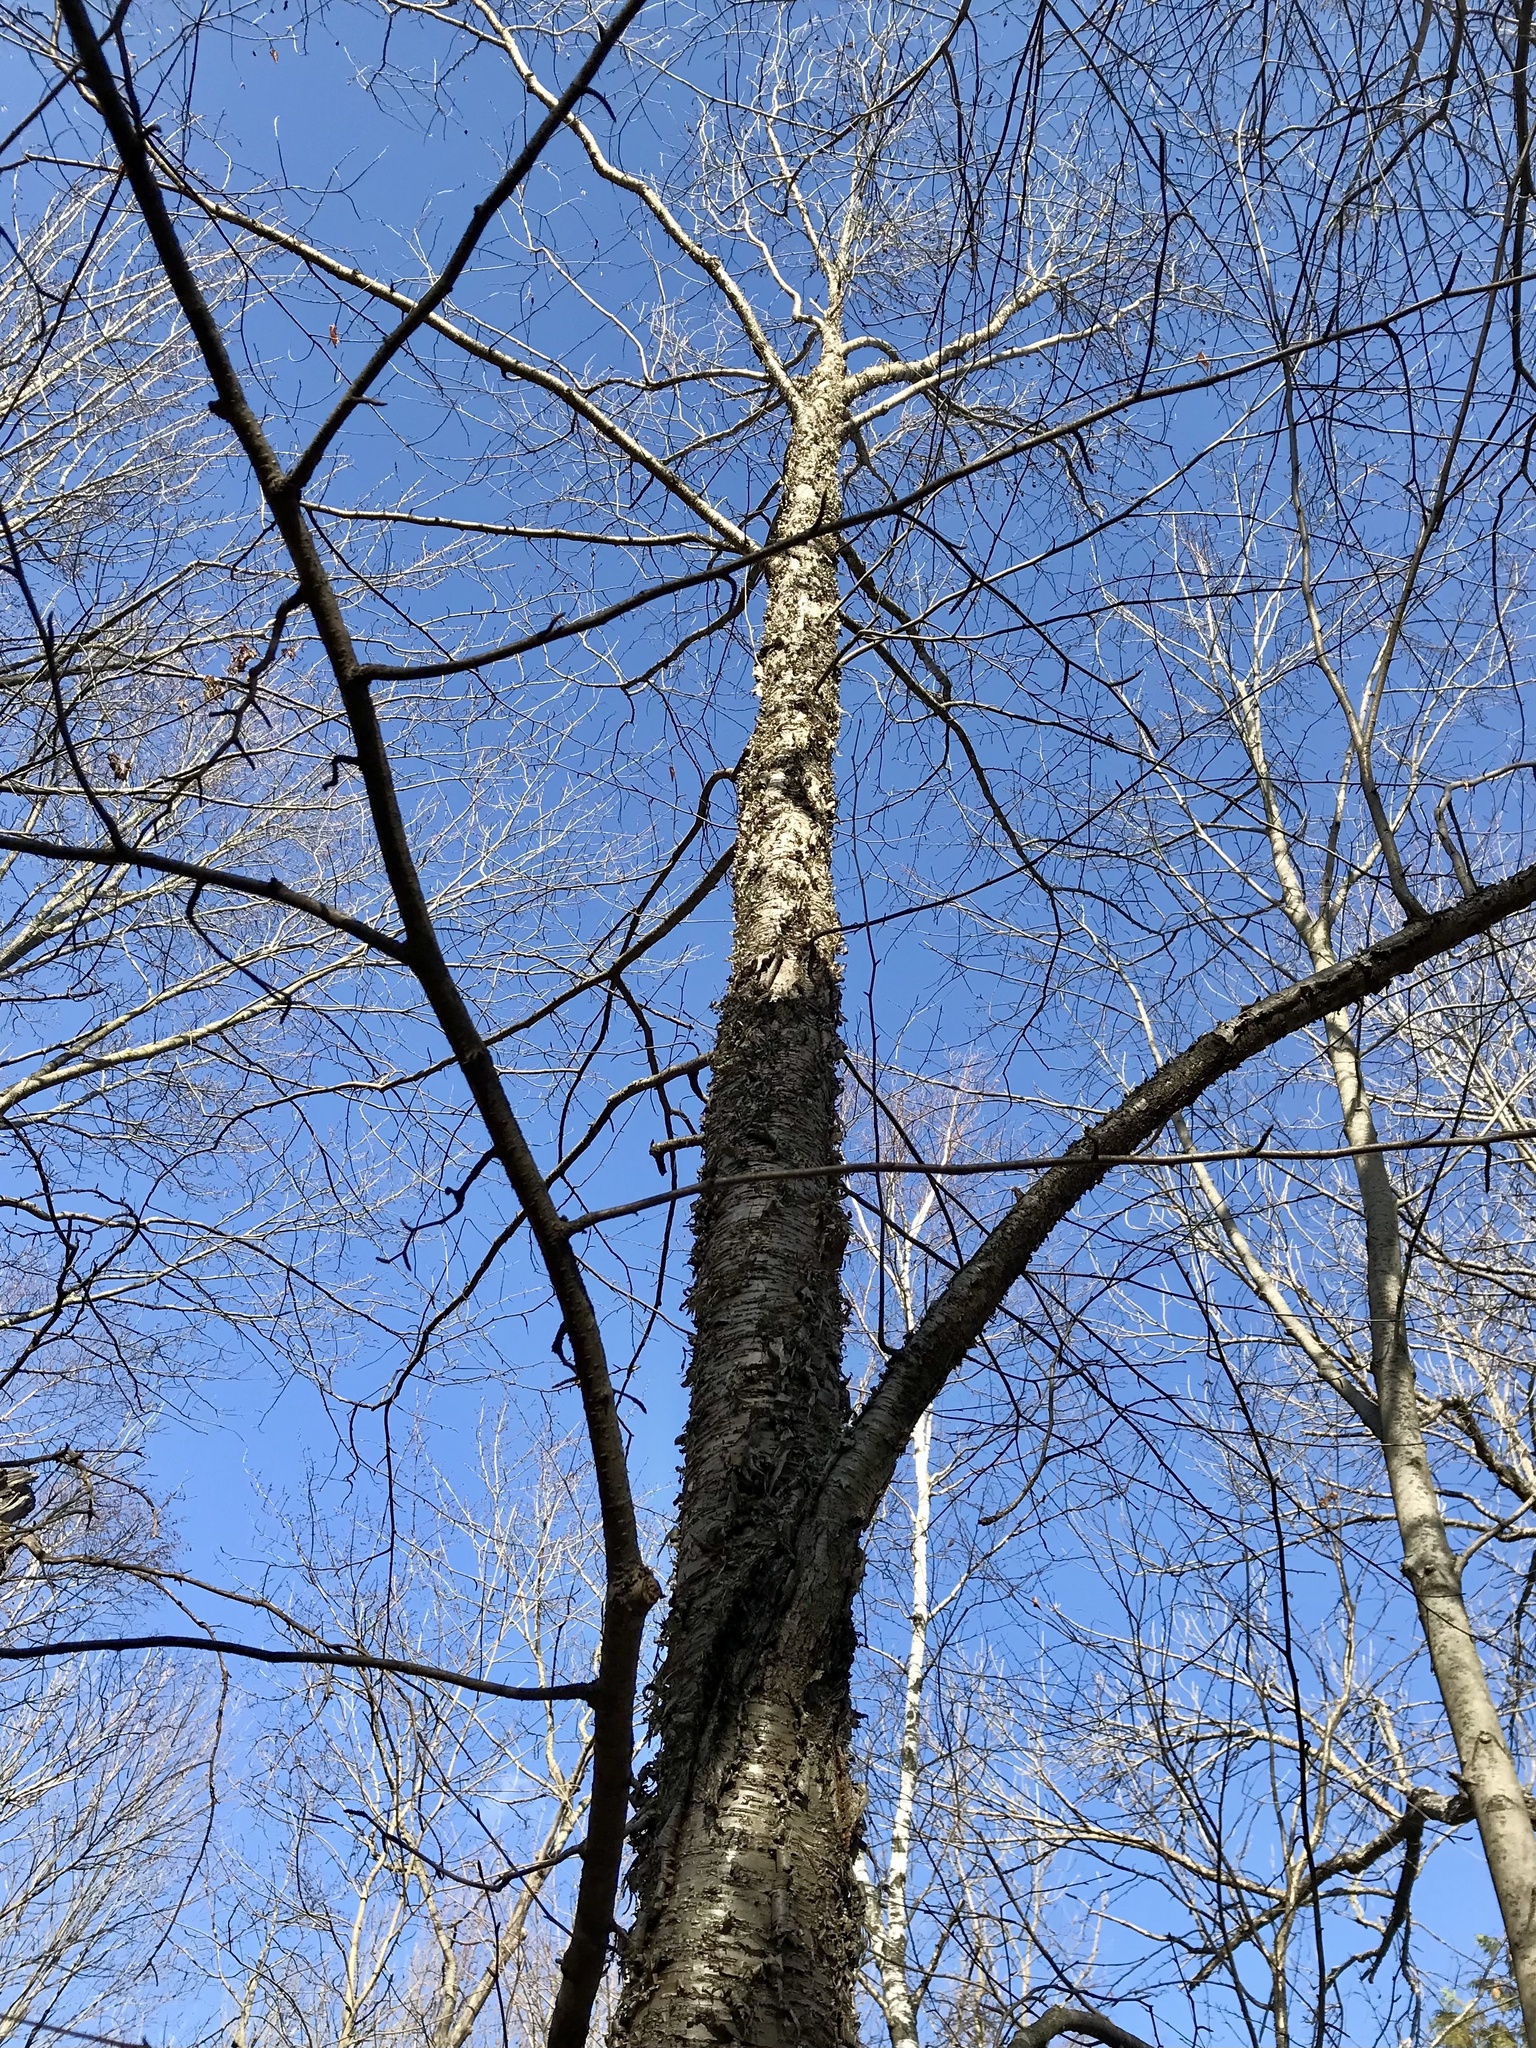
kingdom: Plantae
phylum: Tracheophyta
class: Magnoliopsida
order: Fagales
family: Betulaceae
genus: Betula
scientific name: Betula alleghaniensis
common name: Yellow birch
